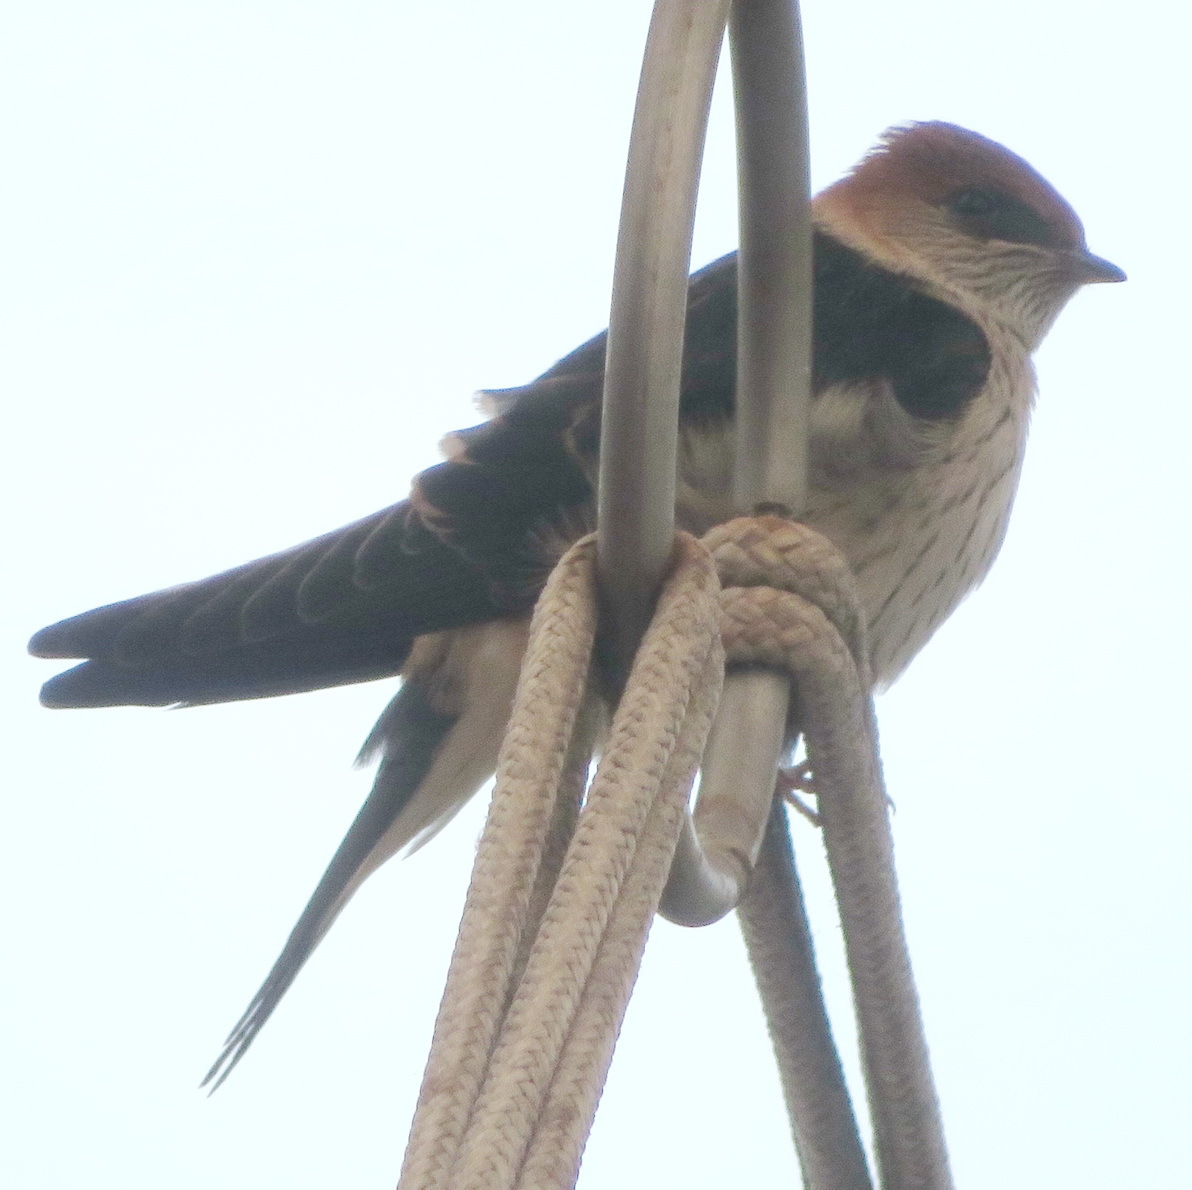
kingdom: Animalia
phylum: Chordata
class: Aves
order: Passeriformes
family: Hirundinidae
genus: Cecropis
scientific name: Cecropis cucullata
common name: Greater striped-swallow
